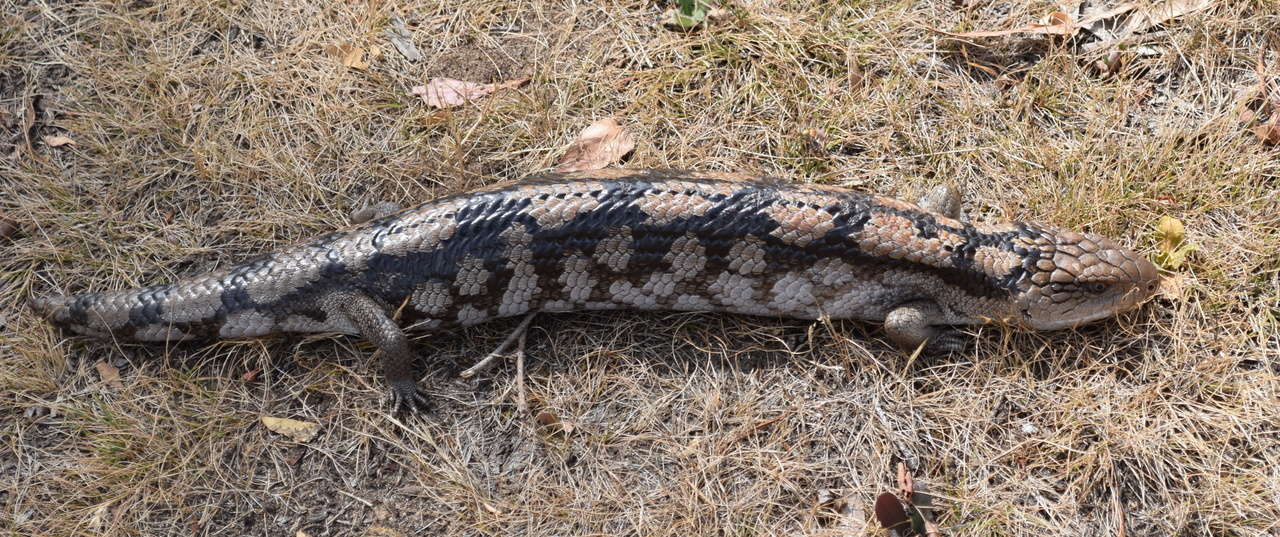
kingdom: Animalia
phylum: Chordata
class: Squamata
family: Scincidae
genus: Tiliqua
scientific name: Tiliqua nigrolutea
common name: Blotched blue-tongued lizard
